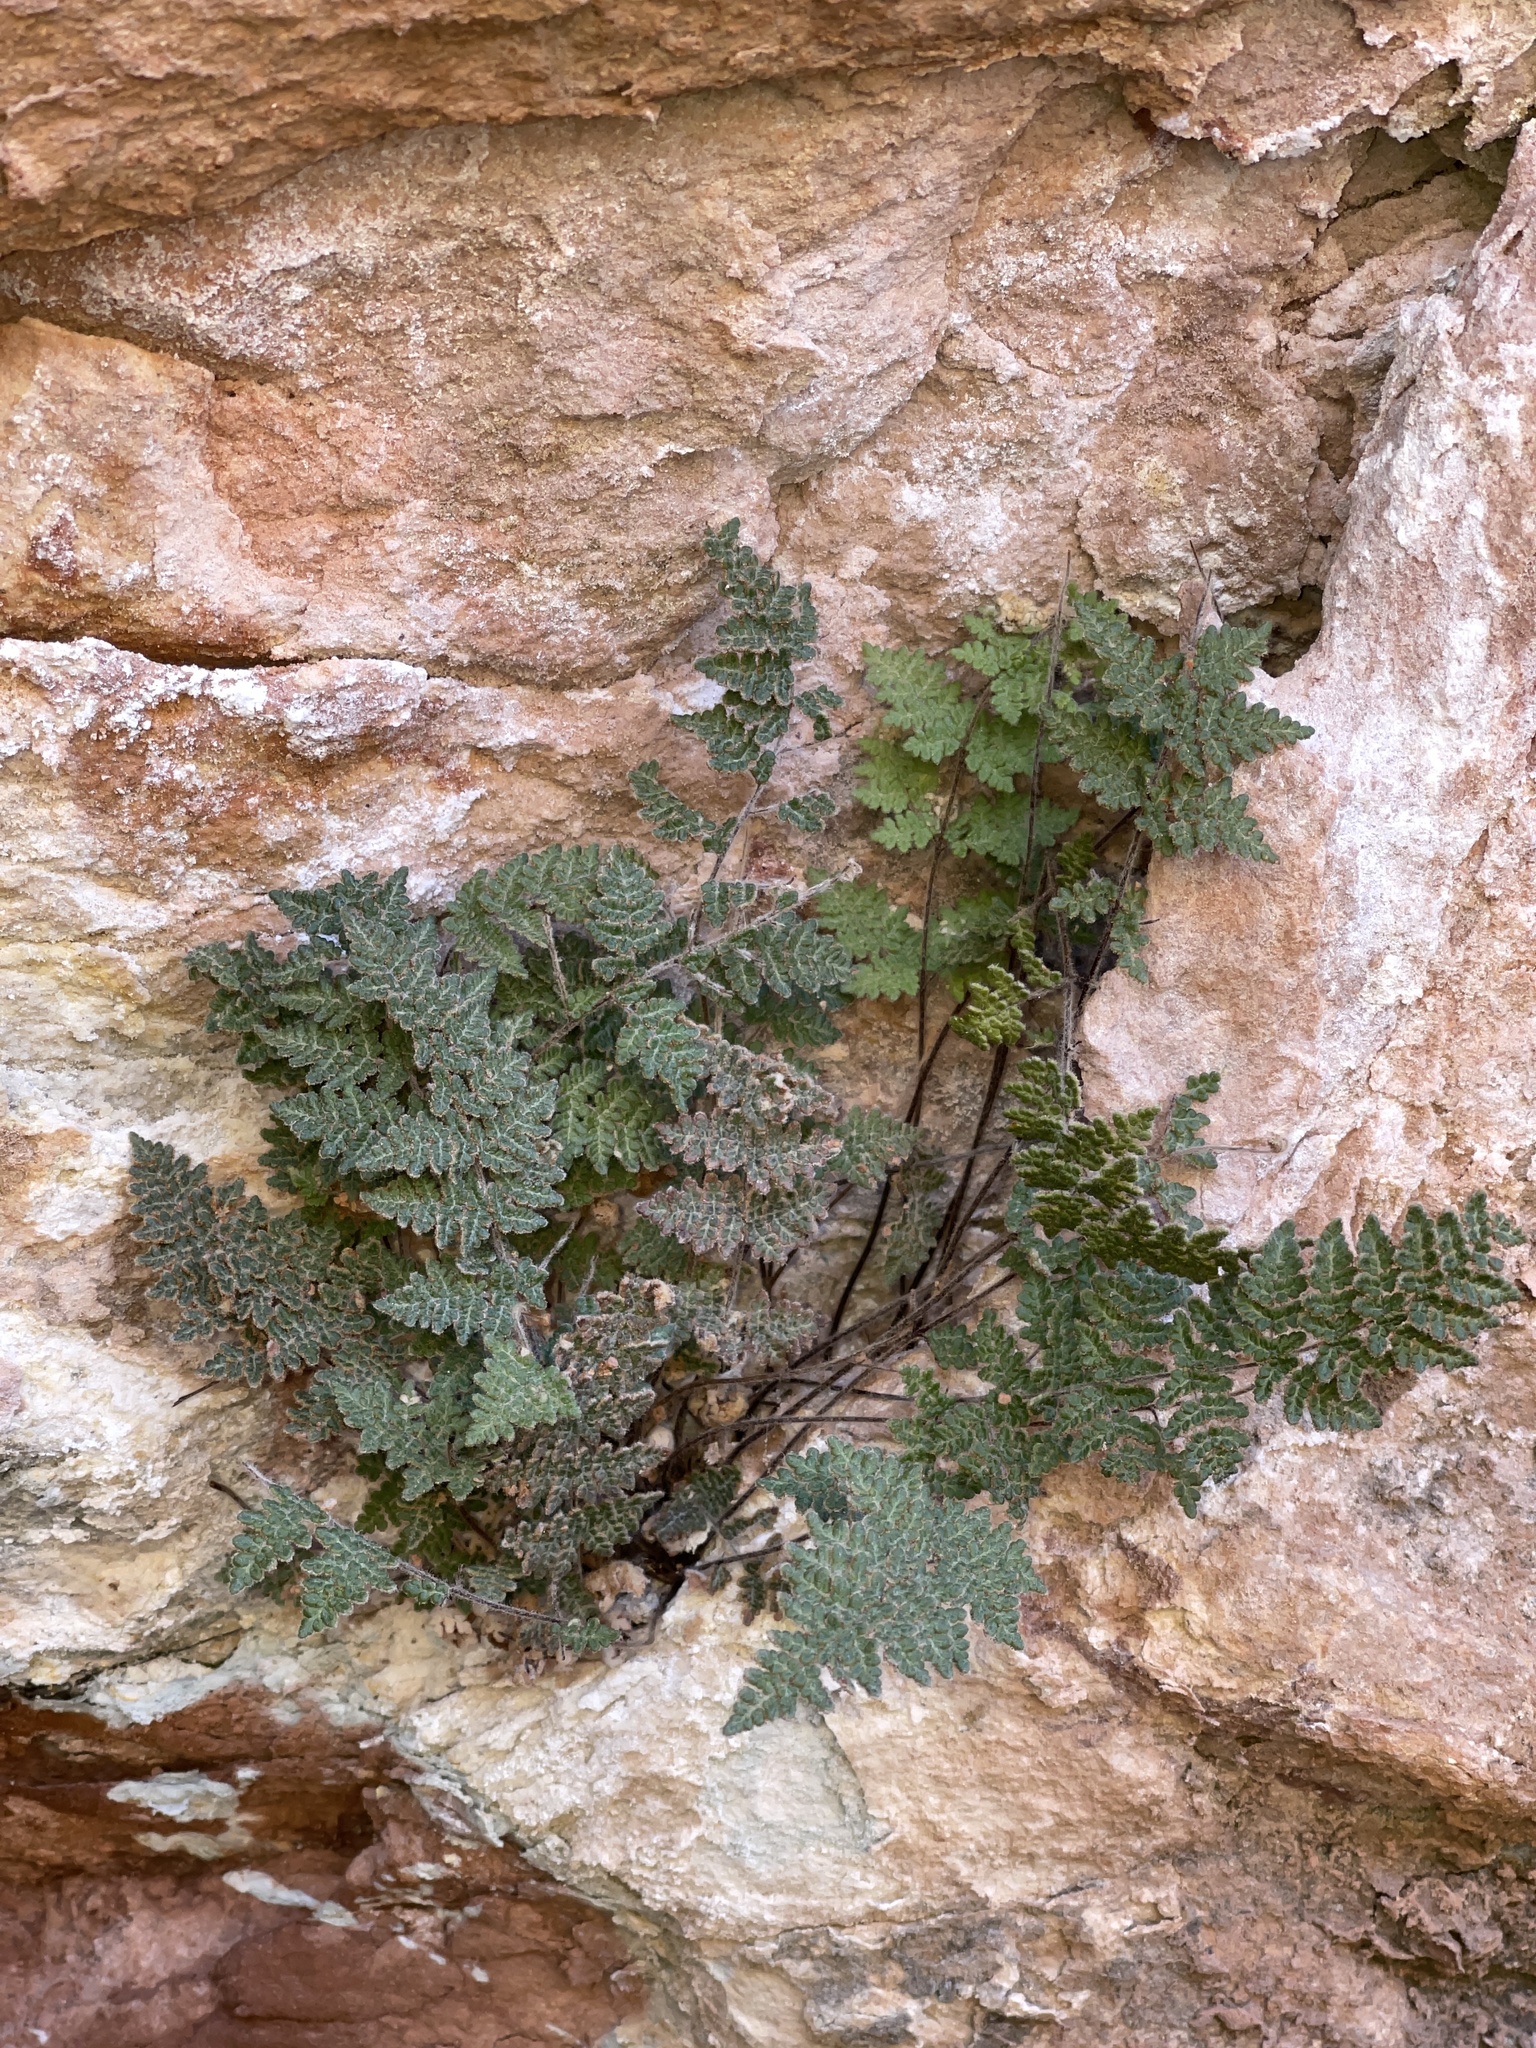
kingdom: Plantae
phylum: Tracheophyta
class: Polypodiopsida
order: Polypodiales
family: Pteridaceae
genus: Myriopteris
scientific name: Myriopteris gracilis
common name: Fee's lip fern
